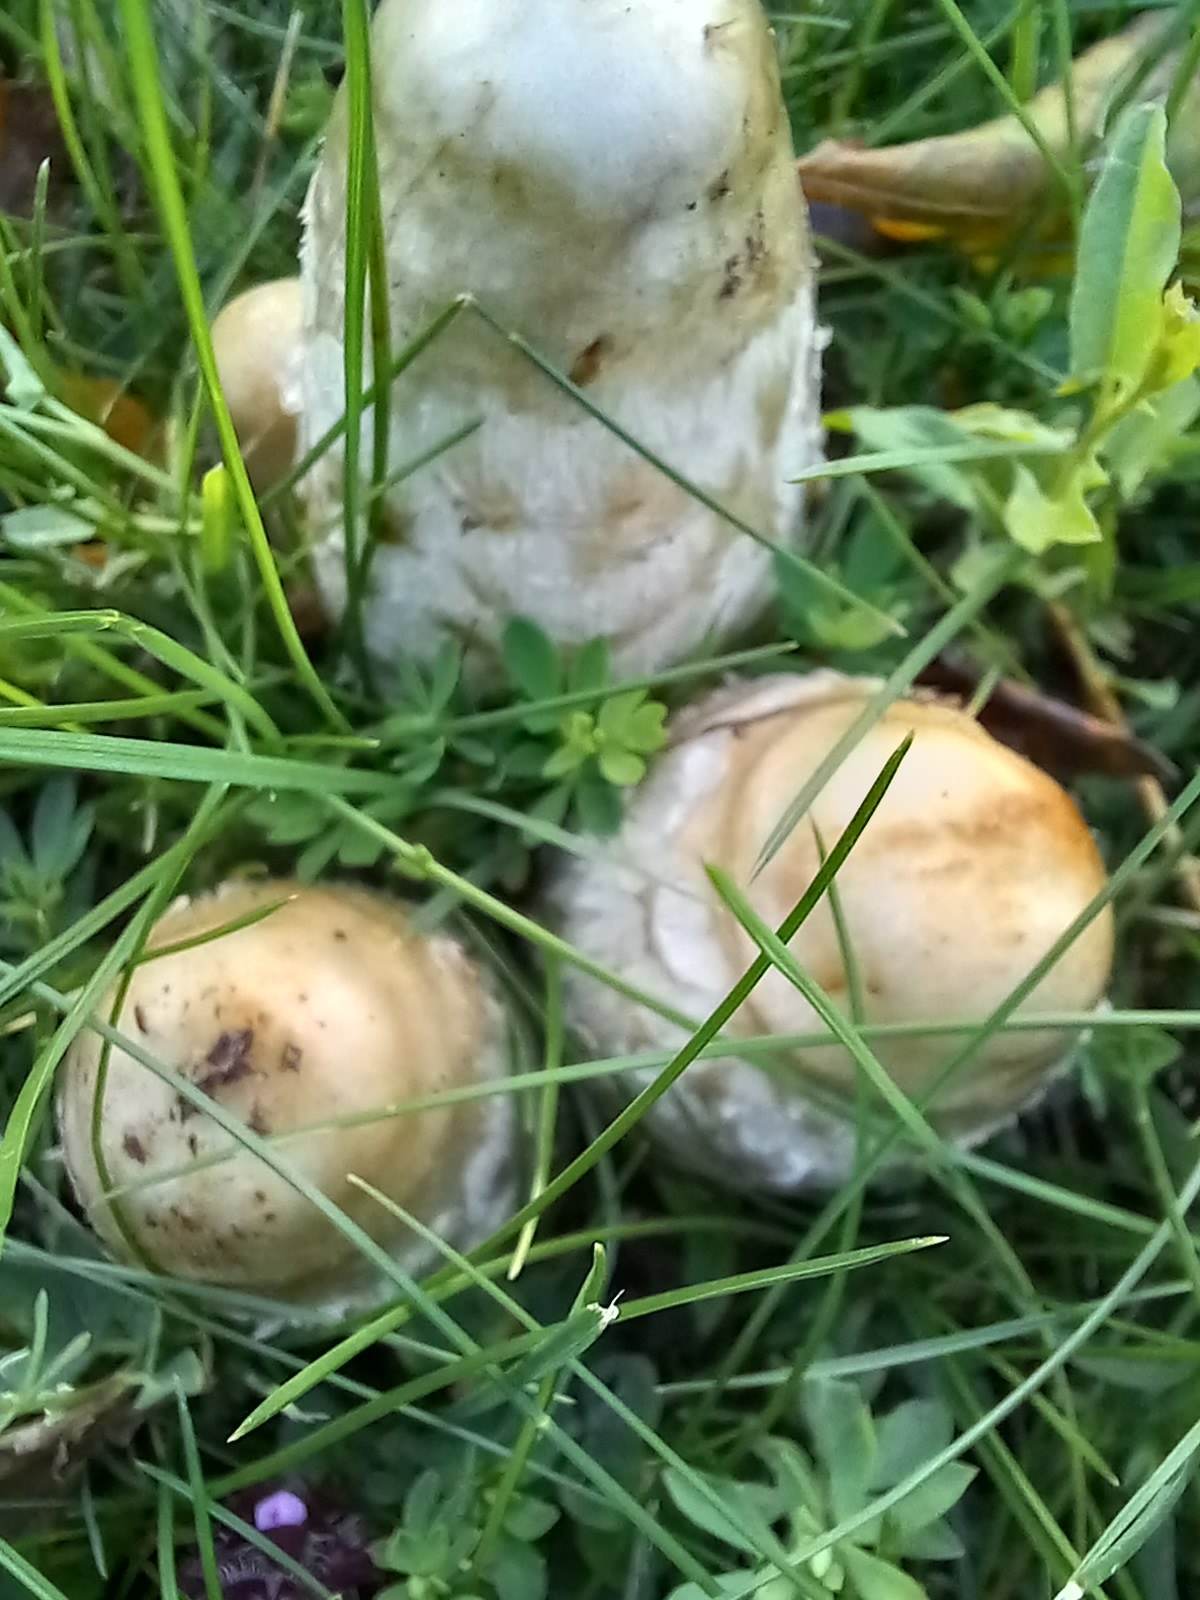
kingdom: Fungi
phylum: Basidiomycota
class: Agaricomycetes
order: Agaricales
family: Agaricaceae
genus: Coprinus
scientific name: Coprinus comatus
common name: Lawyer's wig
